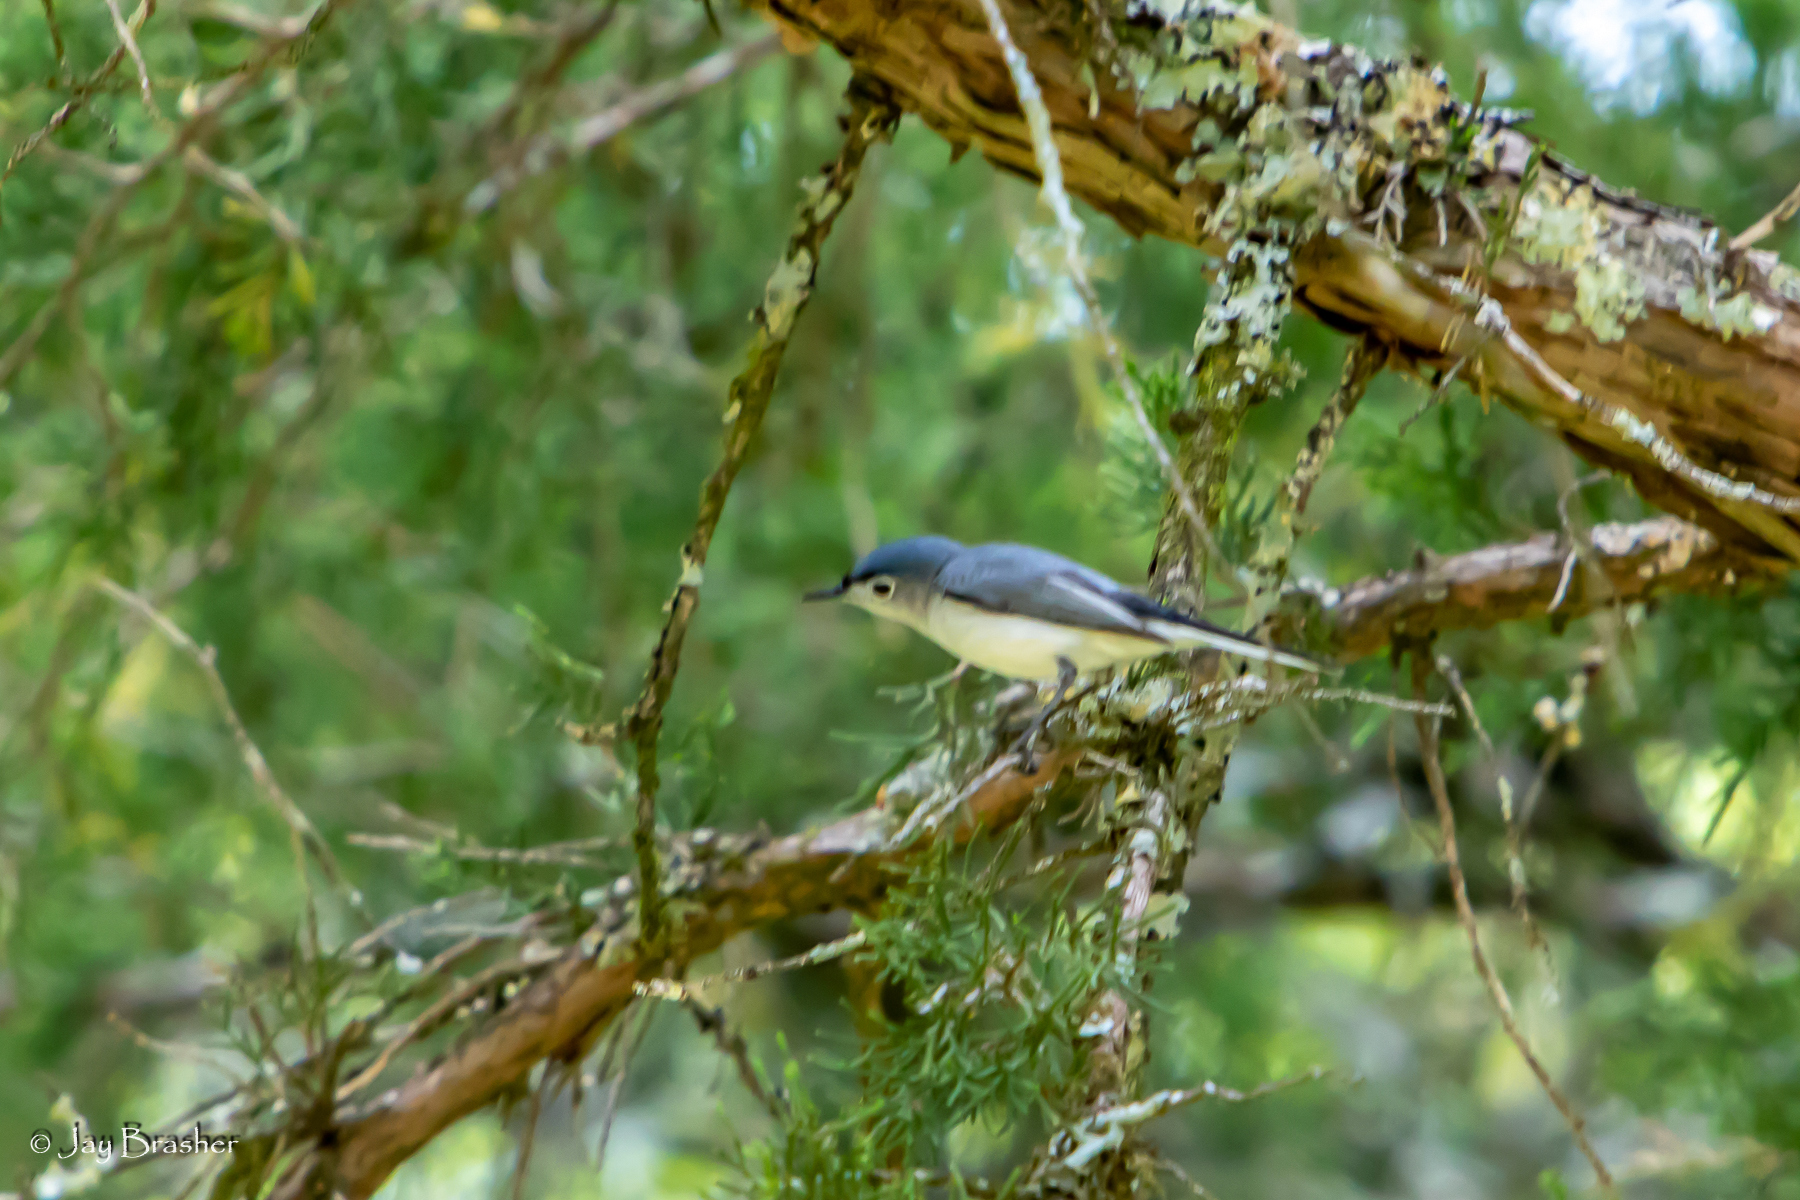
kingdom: Animalia
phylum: Chordata
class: Aves
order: Passeriformes
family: Polioptilidae
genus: Polioptila
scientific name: Polioptila caerulea
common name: Blue-gray gnatcatcher
